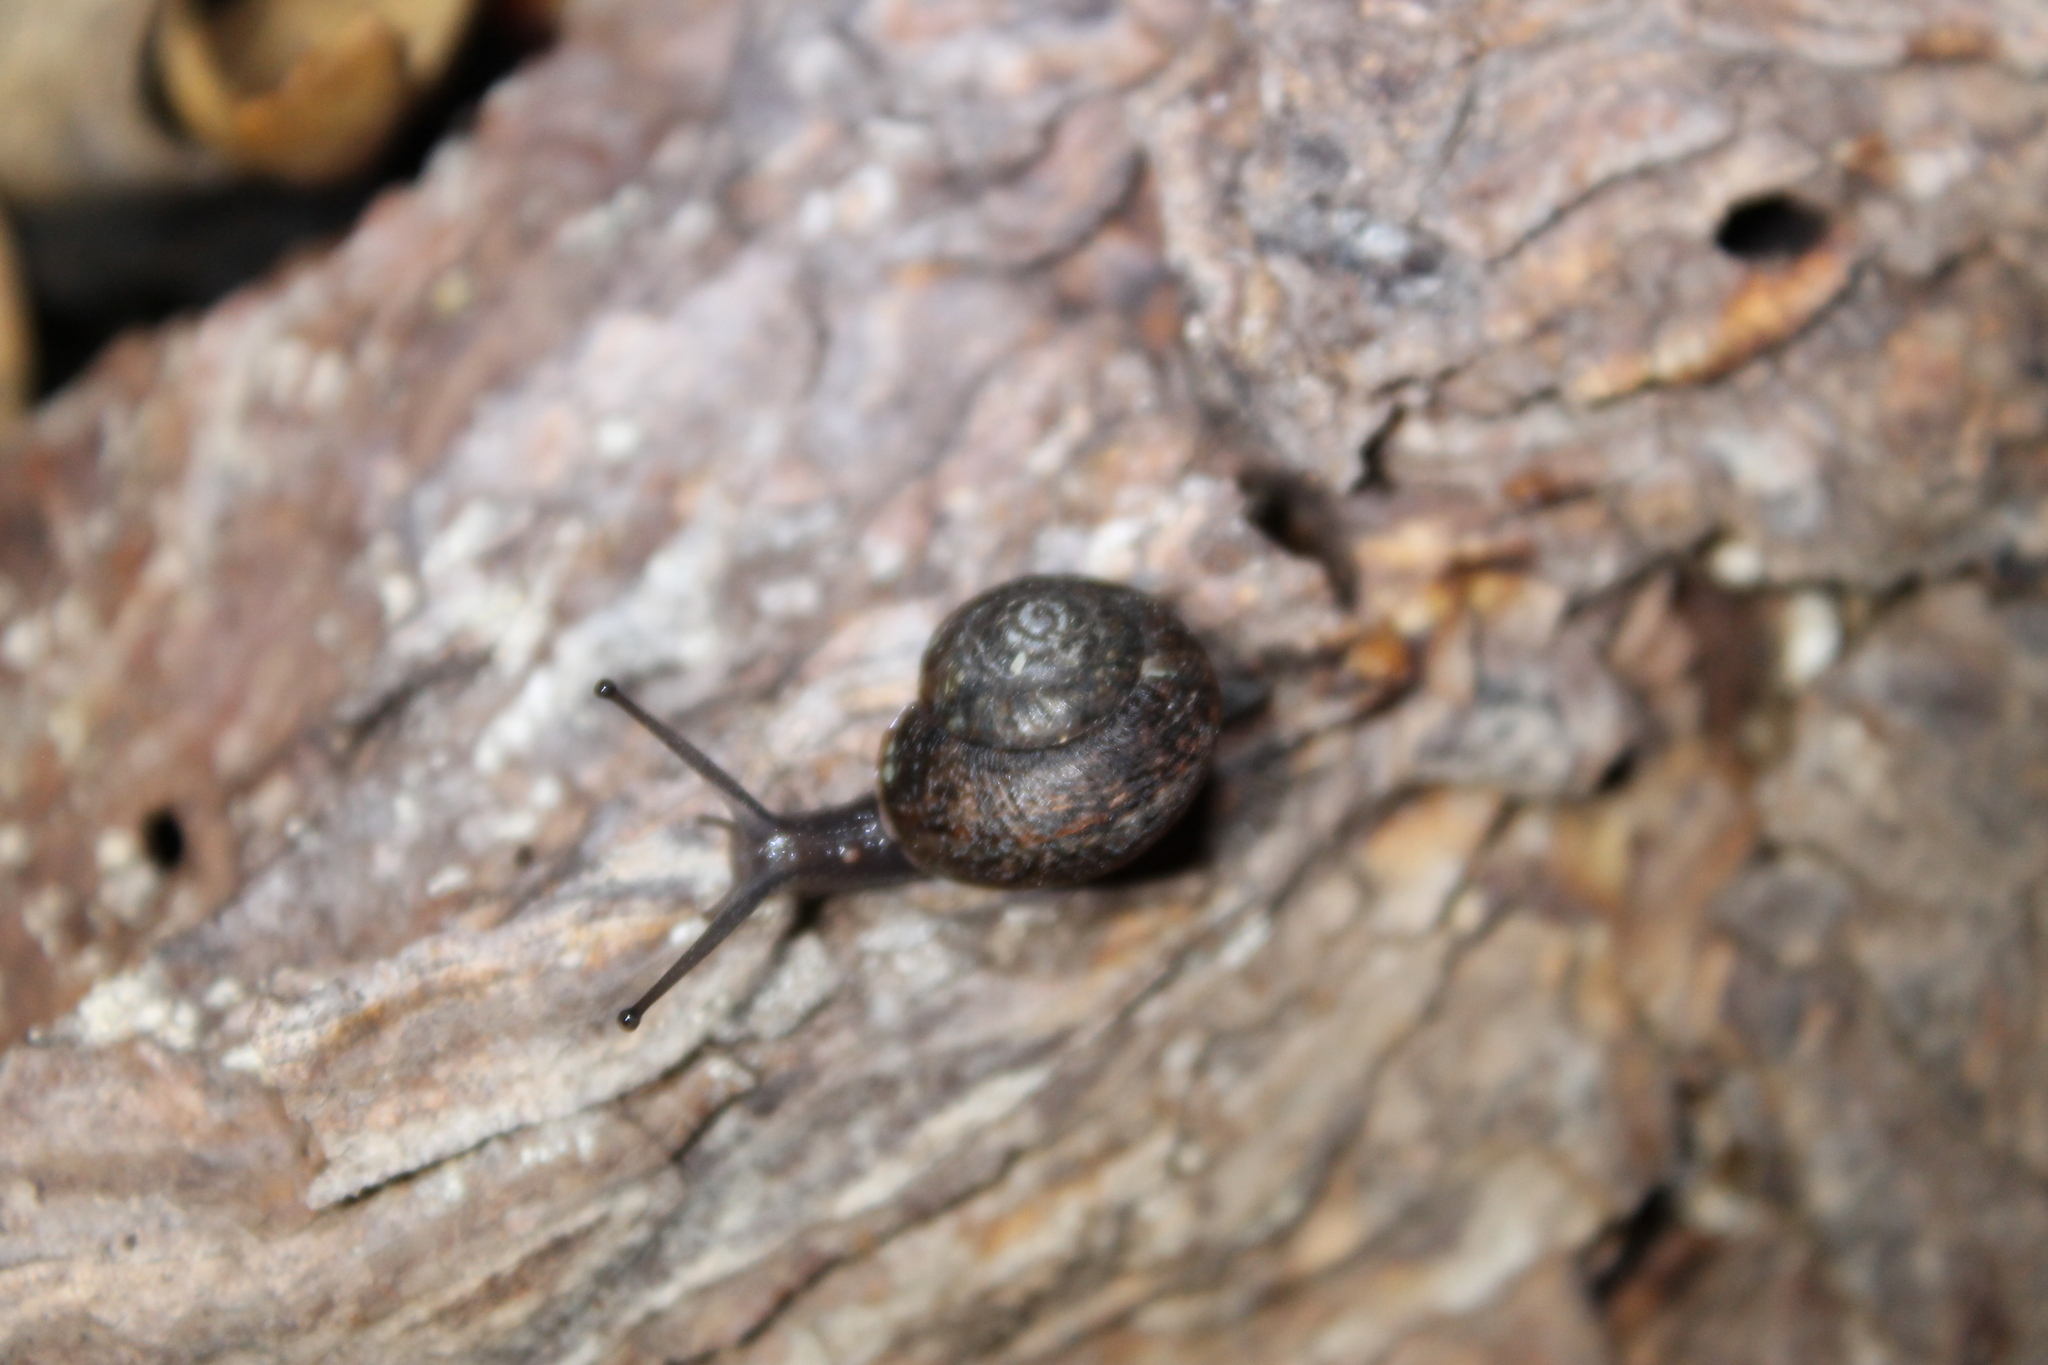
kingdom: Animalia
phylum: Mollusca
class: Gastropoda
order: Stylommatophora
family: Xanthonychidae
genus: Helminthoglypta
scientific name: Helminthoglypta nickliniana
